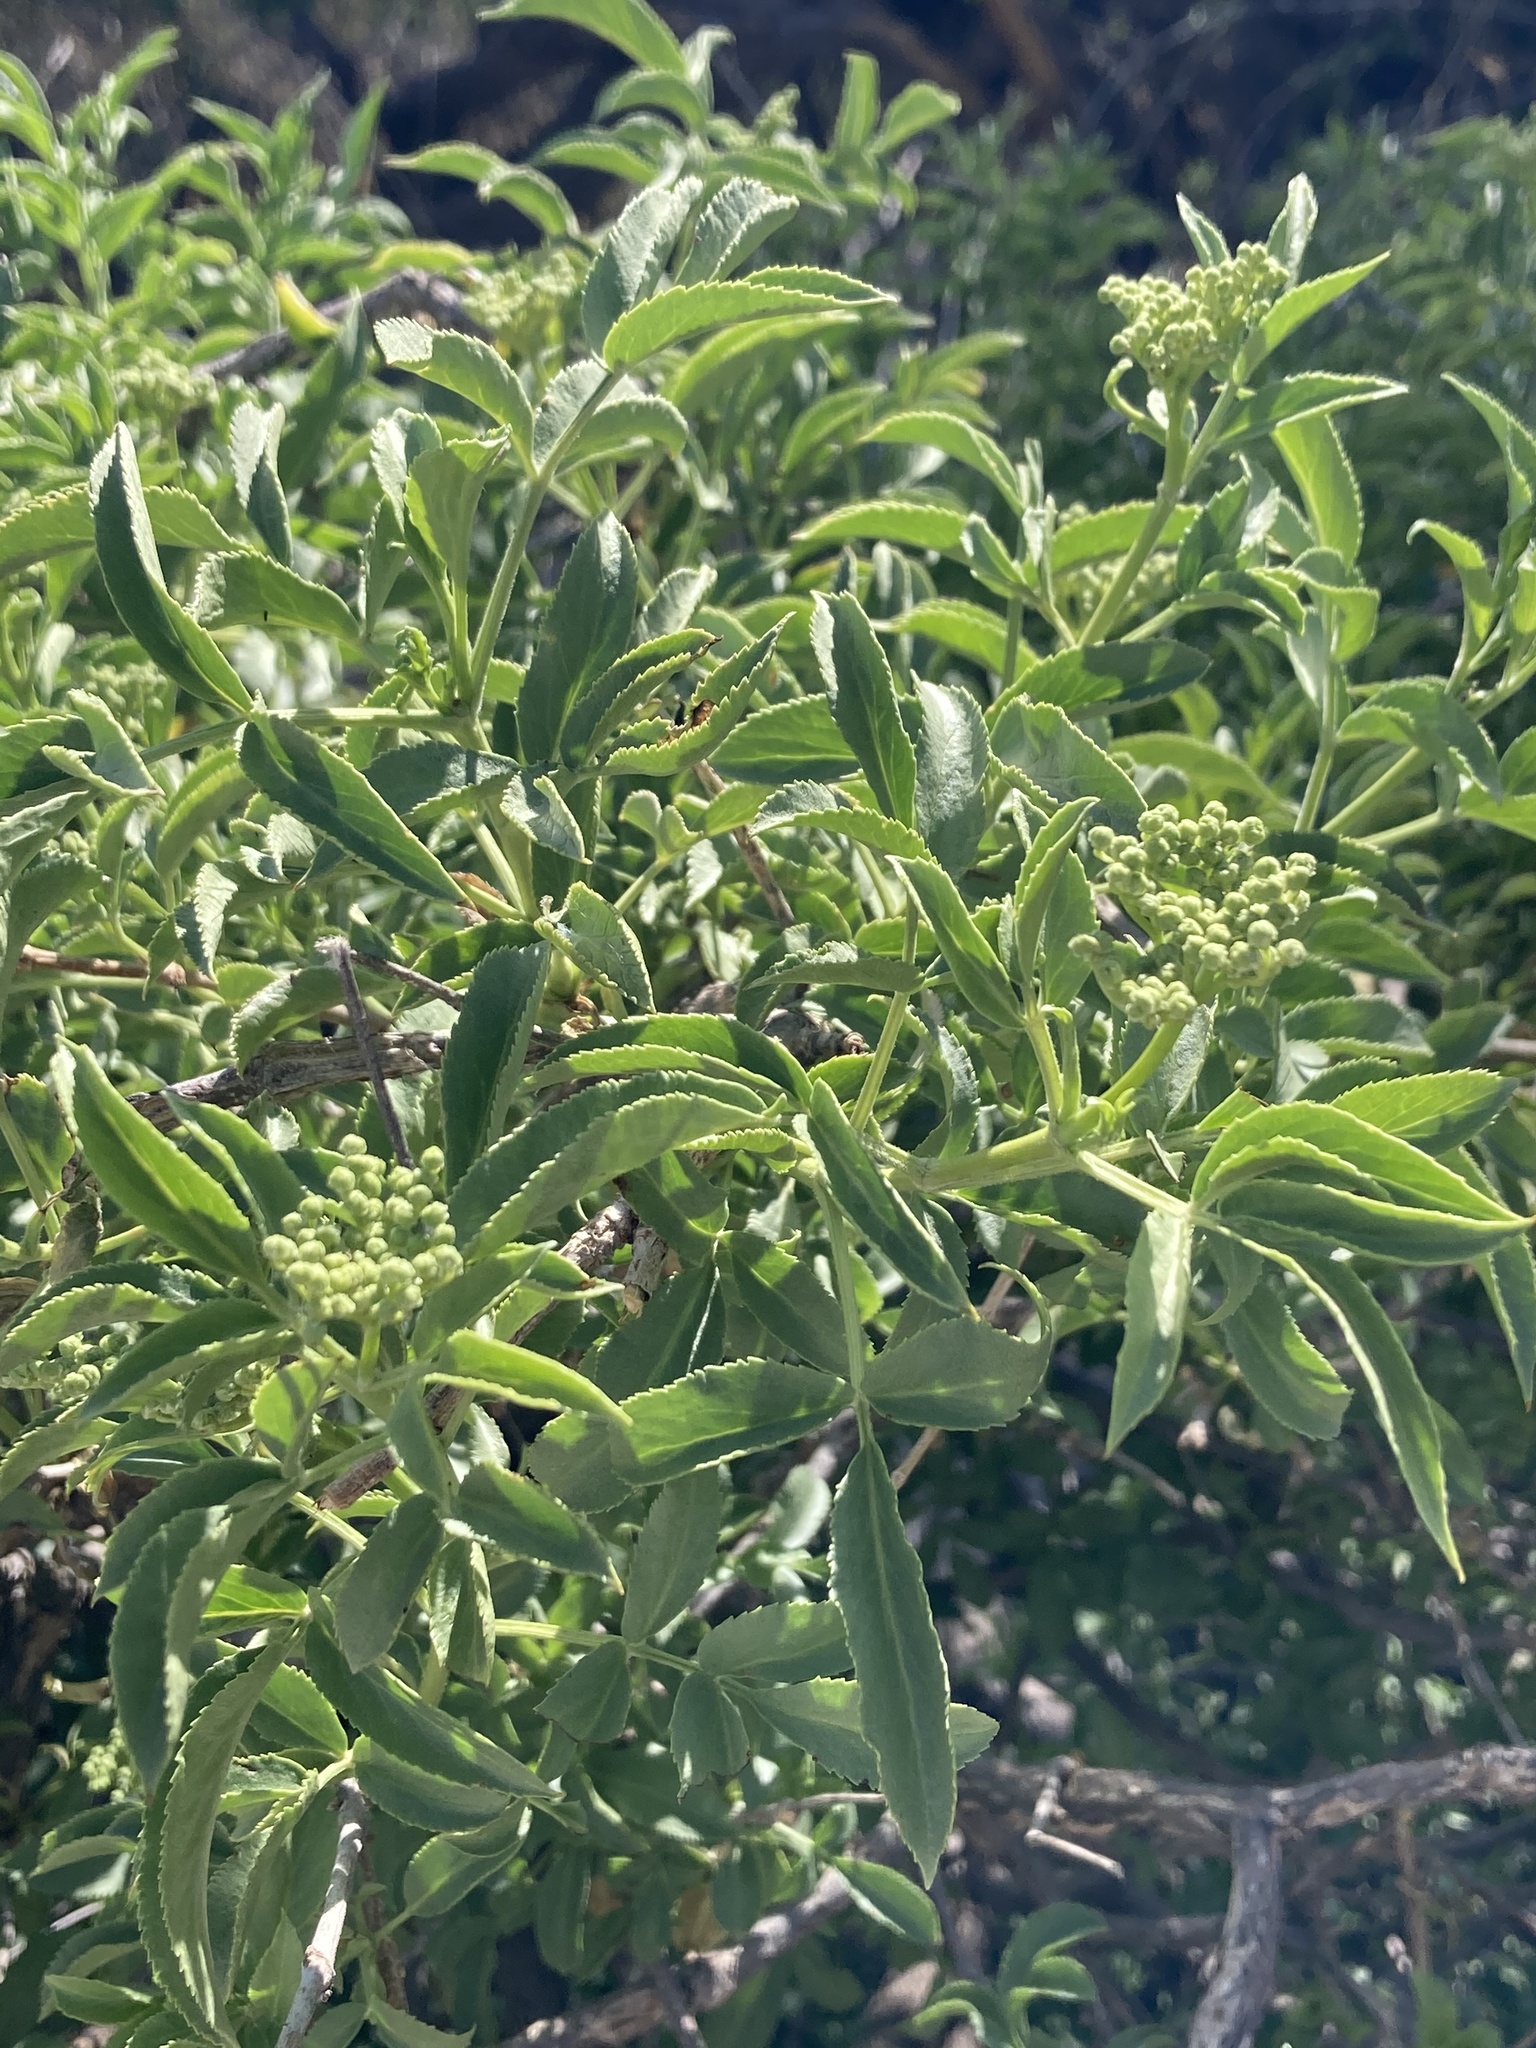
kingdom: Plantae
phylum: Tracheophyta
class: Magnoliopsida
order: Dipsacales
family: Viburnaceae
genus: Sambucus
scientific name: Sambucus cerulea
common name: Blue elder
